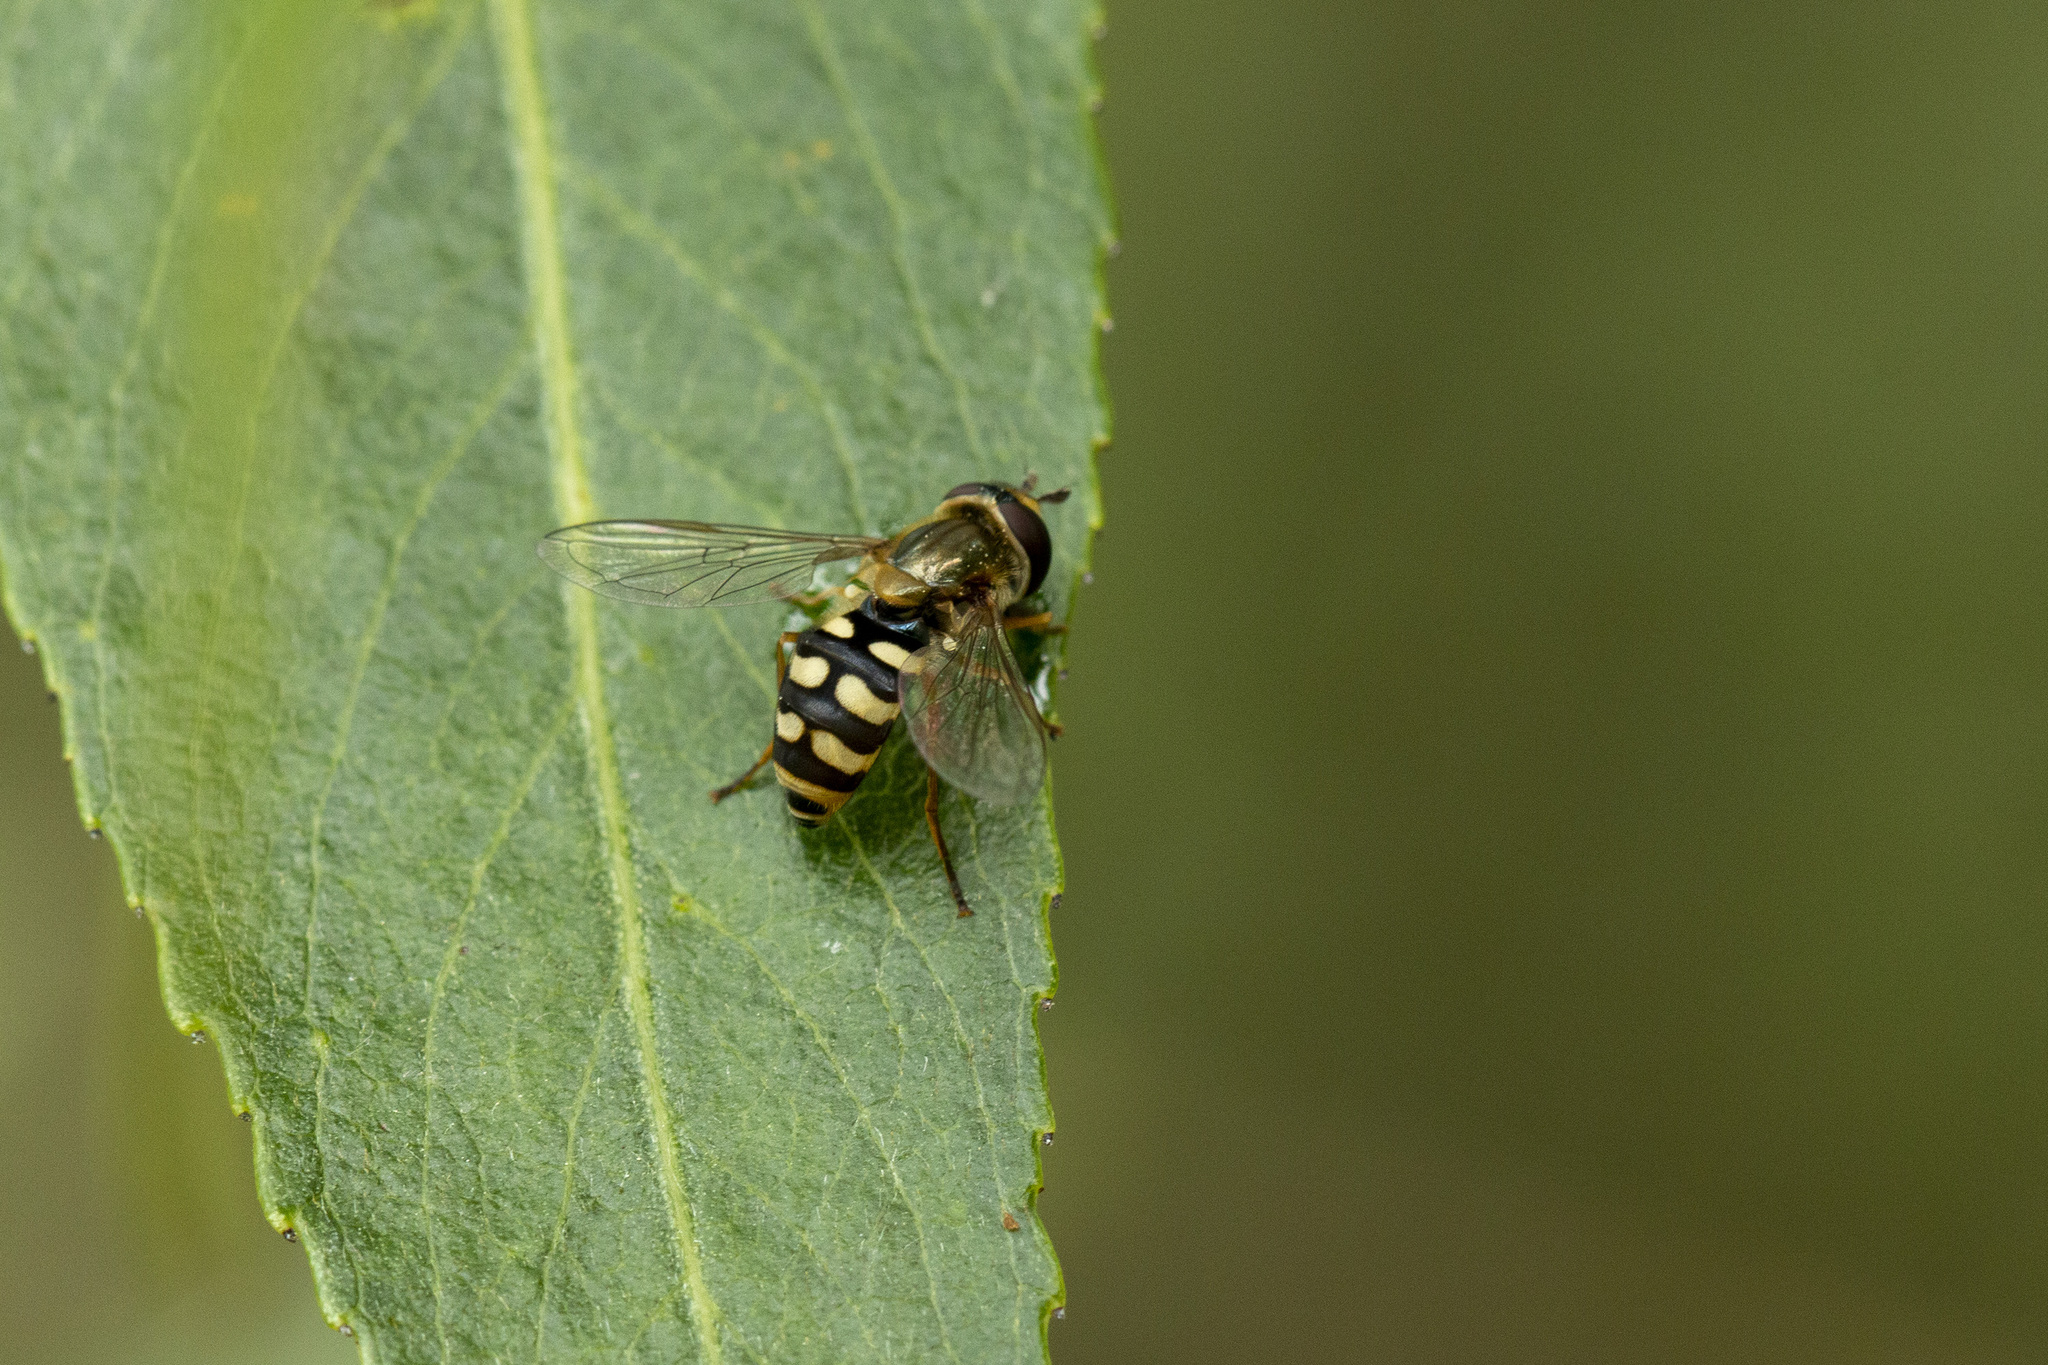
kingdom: Animalia
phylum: Arthropoda
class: Insecta
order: Diptera
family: Syrphidae
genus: Eupeodes
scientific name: Eupeodes corollae
